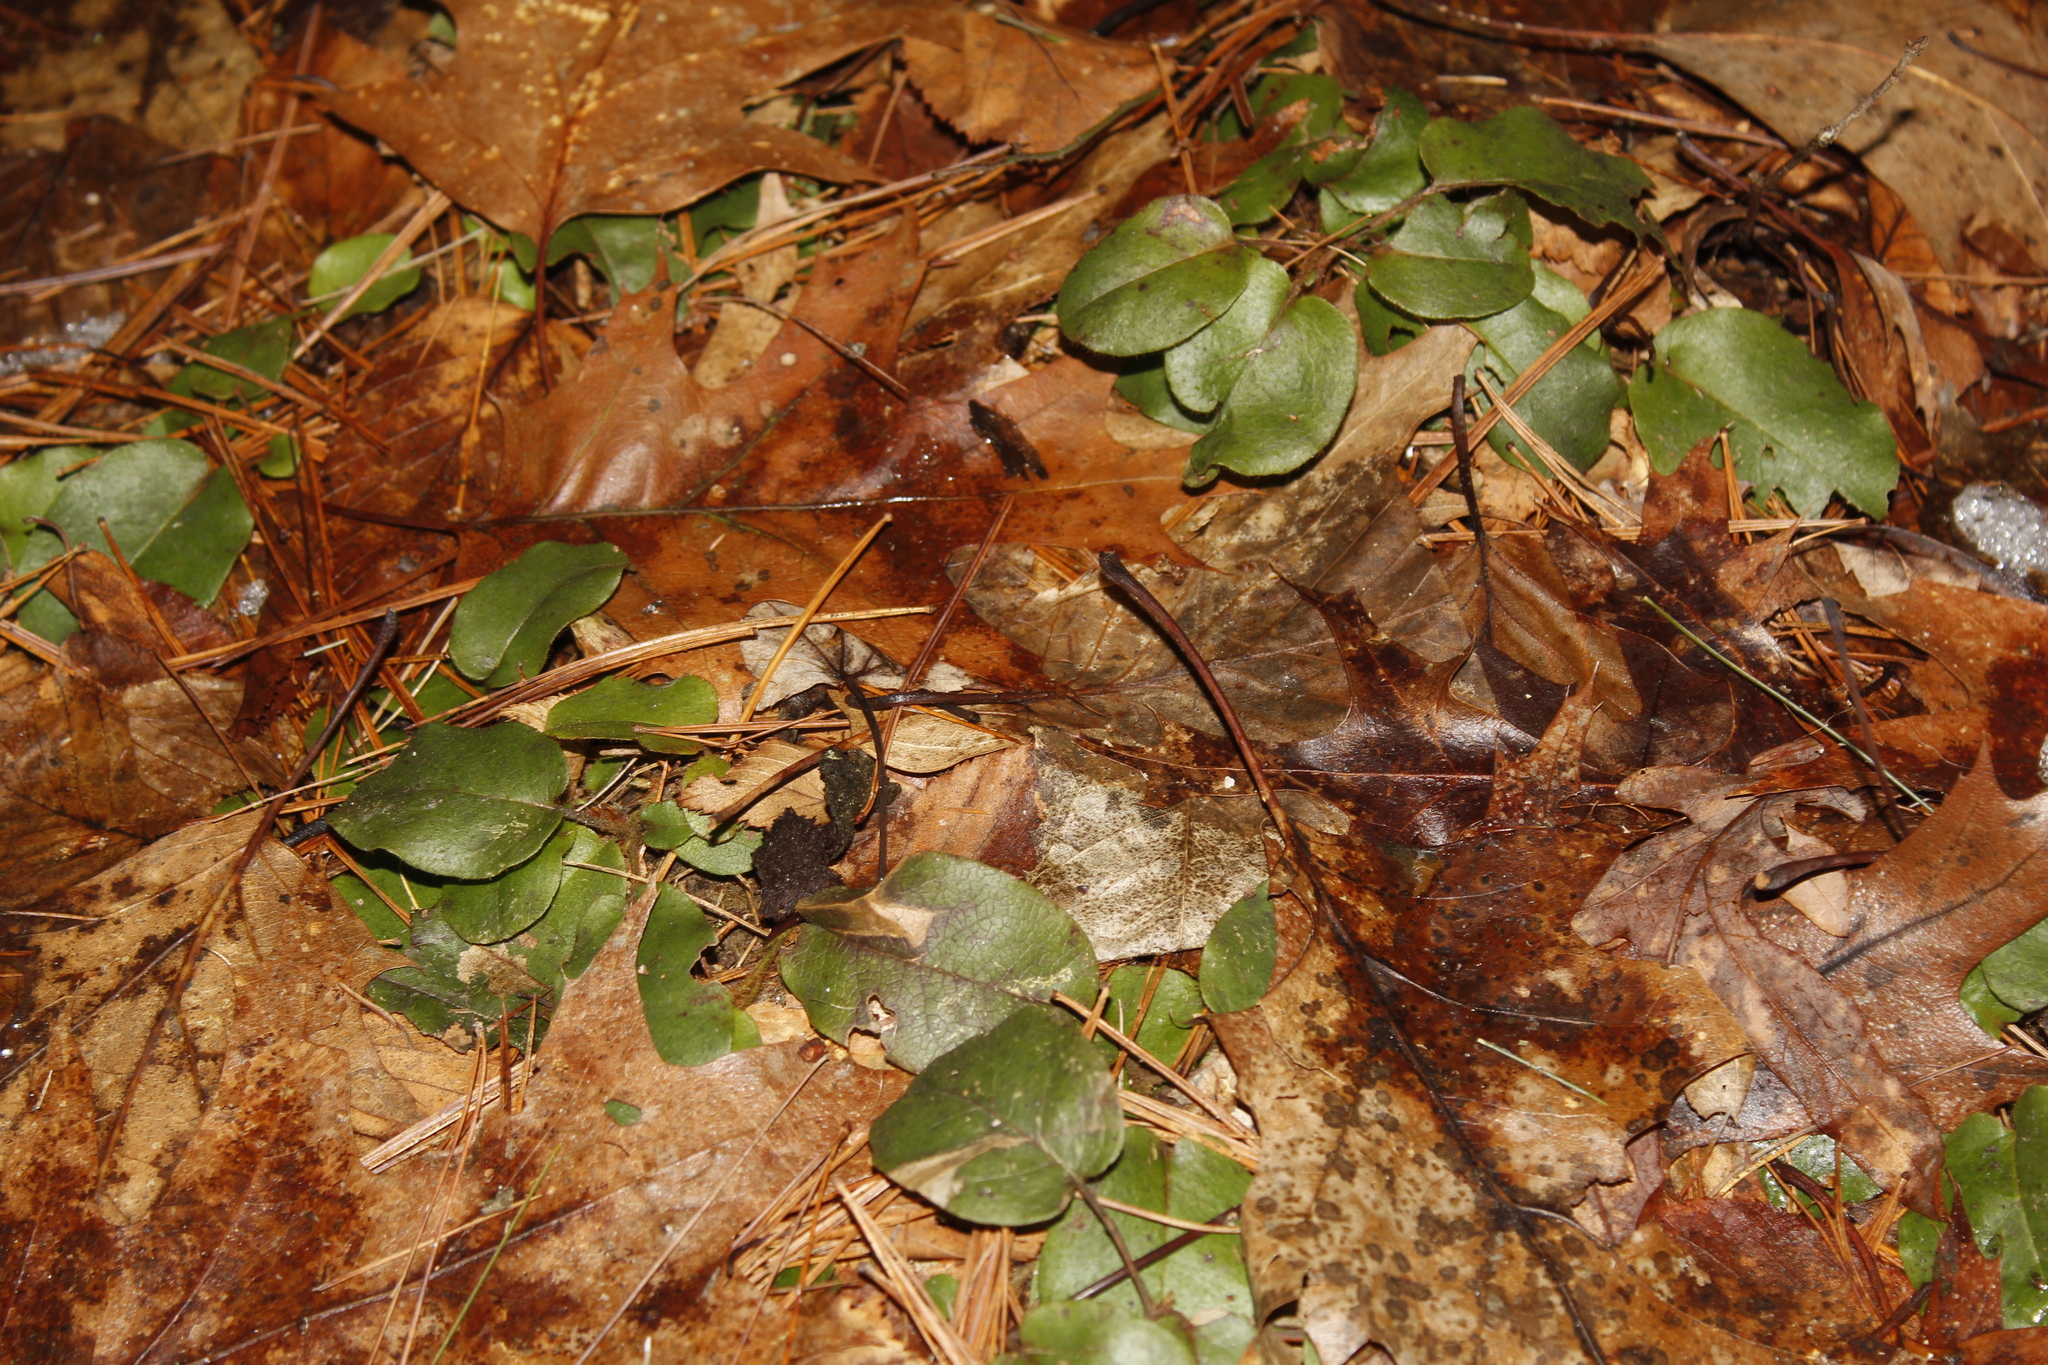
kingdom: Plantae
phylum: Tracheophyta
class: Magnoliopsida
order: Ericales
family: Ericaceae
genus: Epigaea
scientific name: Epigaea repens
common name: Gravelroot
